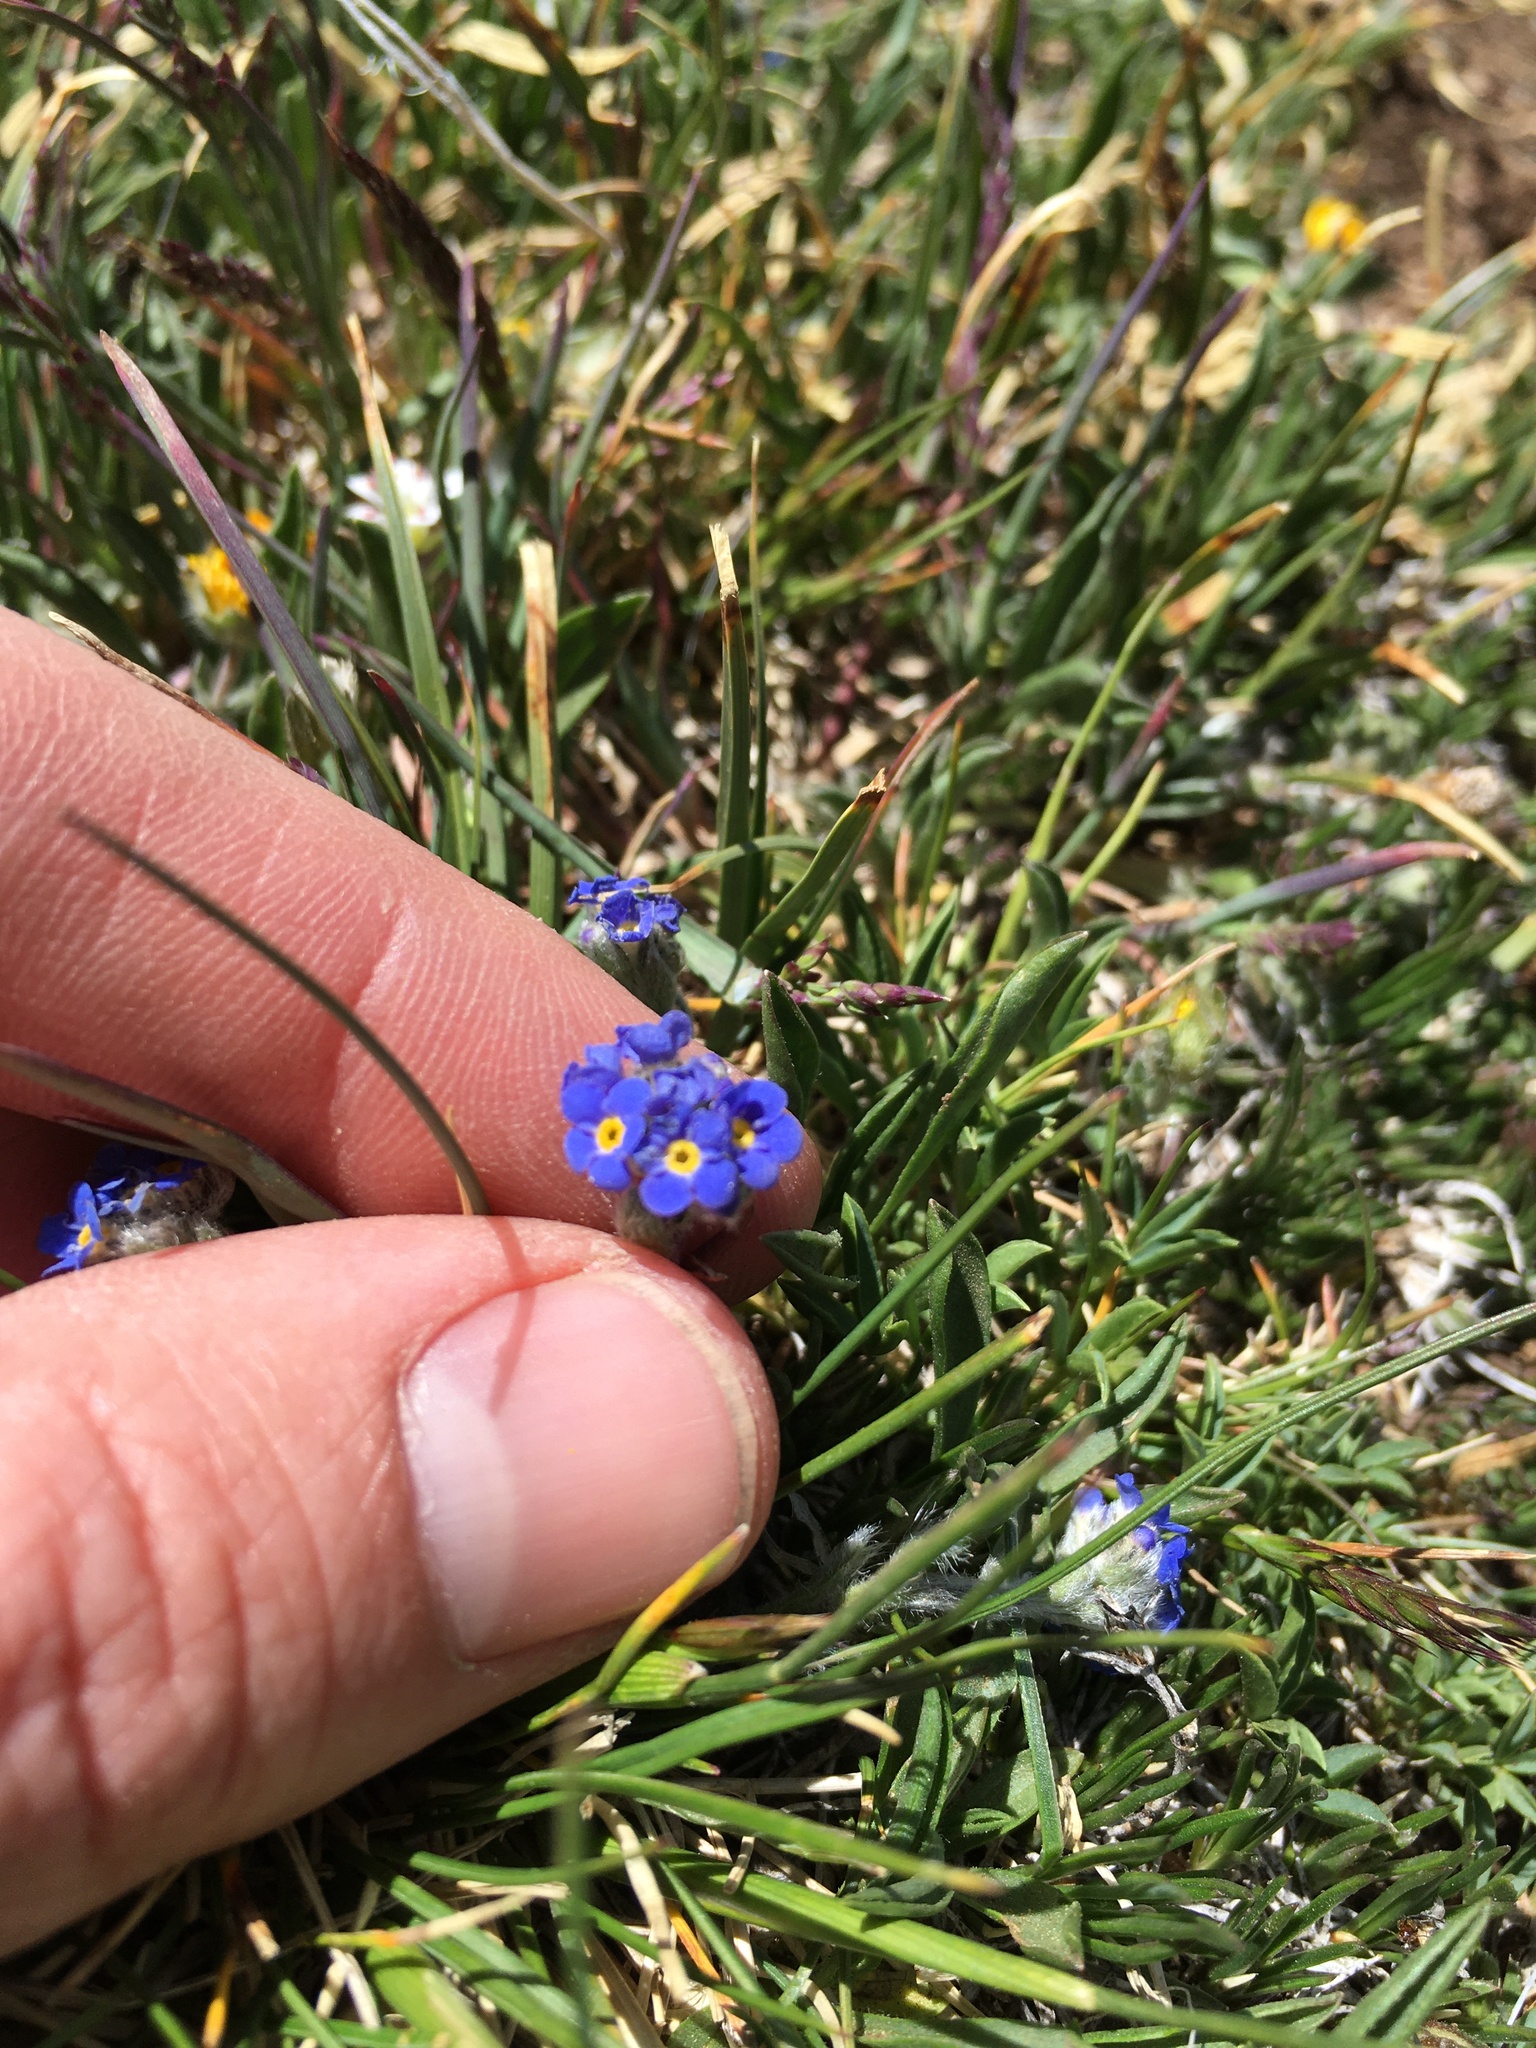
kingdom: Plantae
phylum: Tracheophyta
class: Magnoliopsida
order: Boraginales
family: Boraginaceae
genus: Eritrichium
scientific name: Eritrichium argenteum
